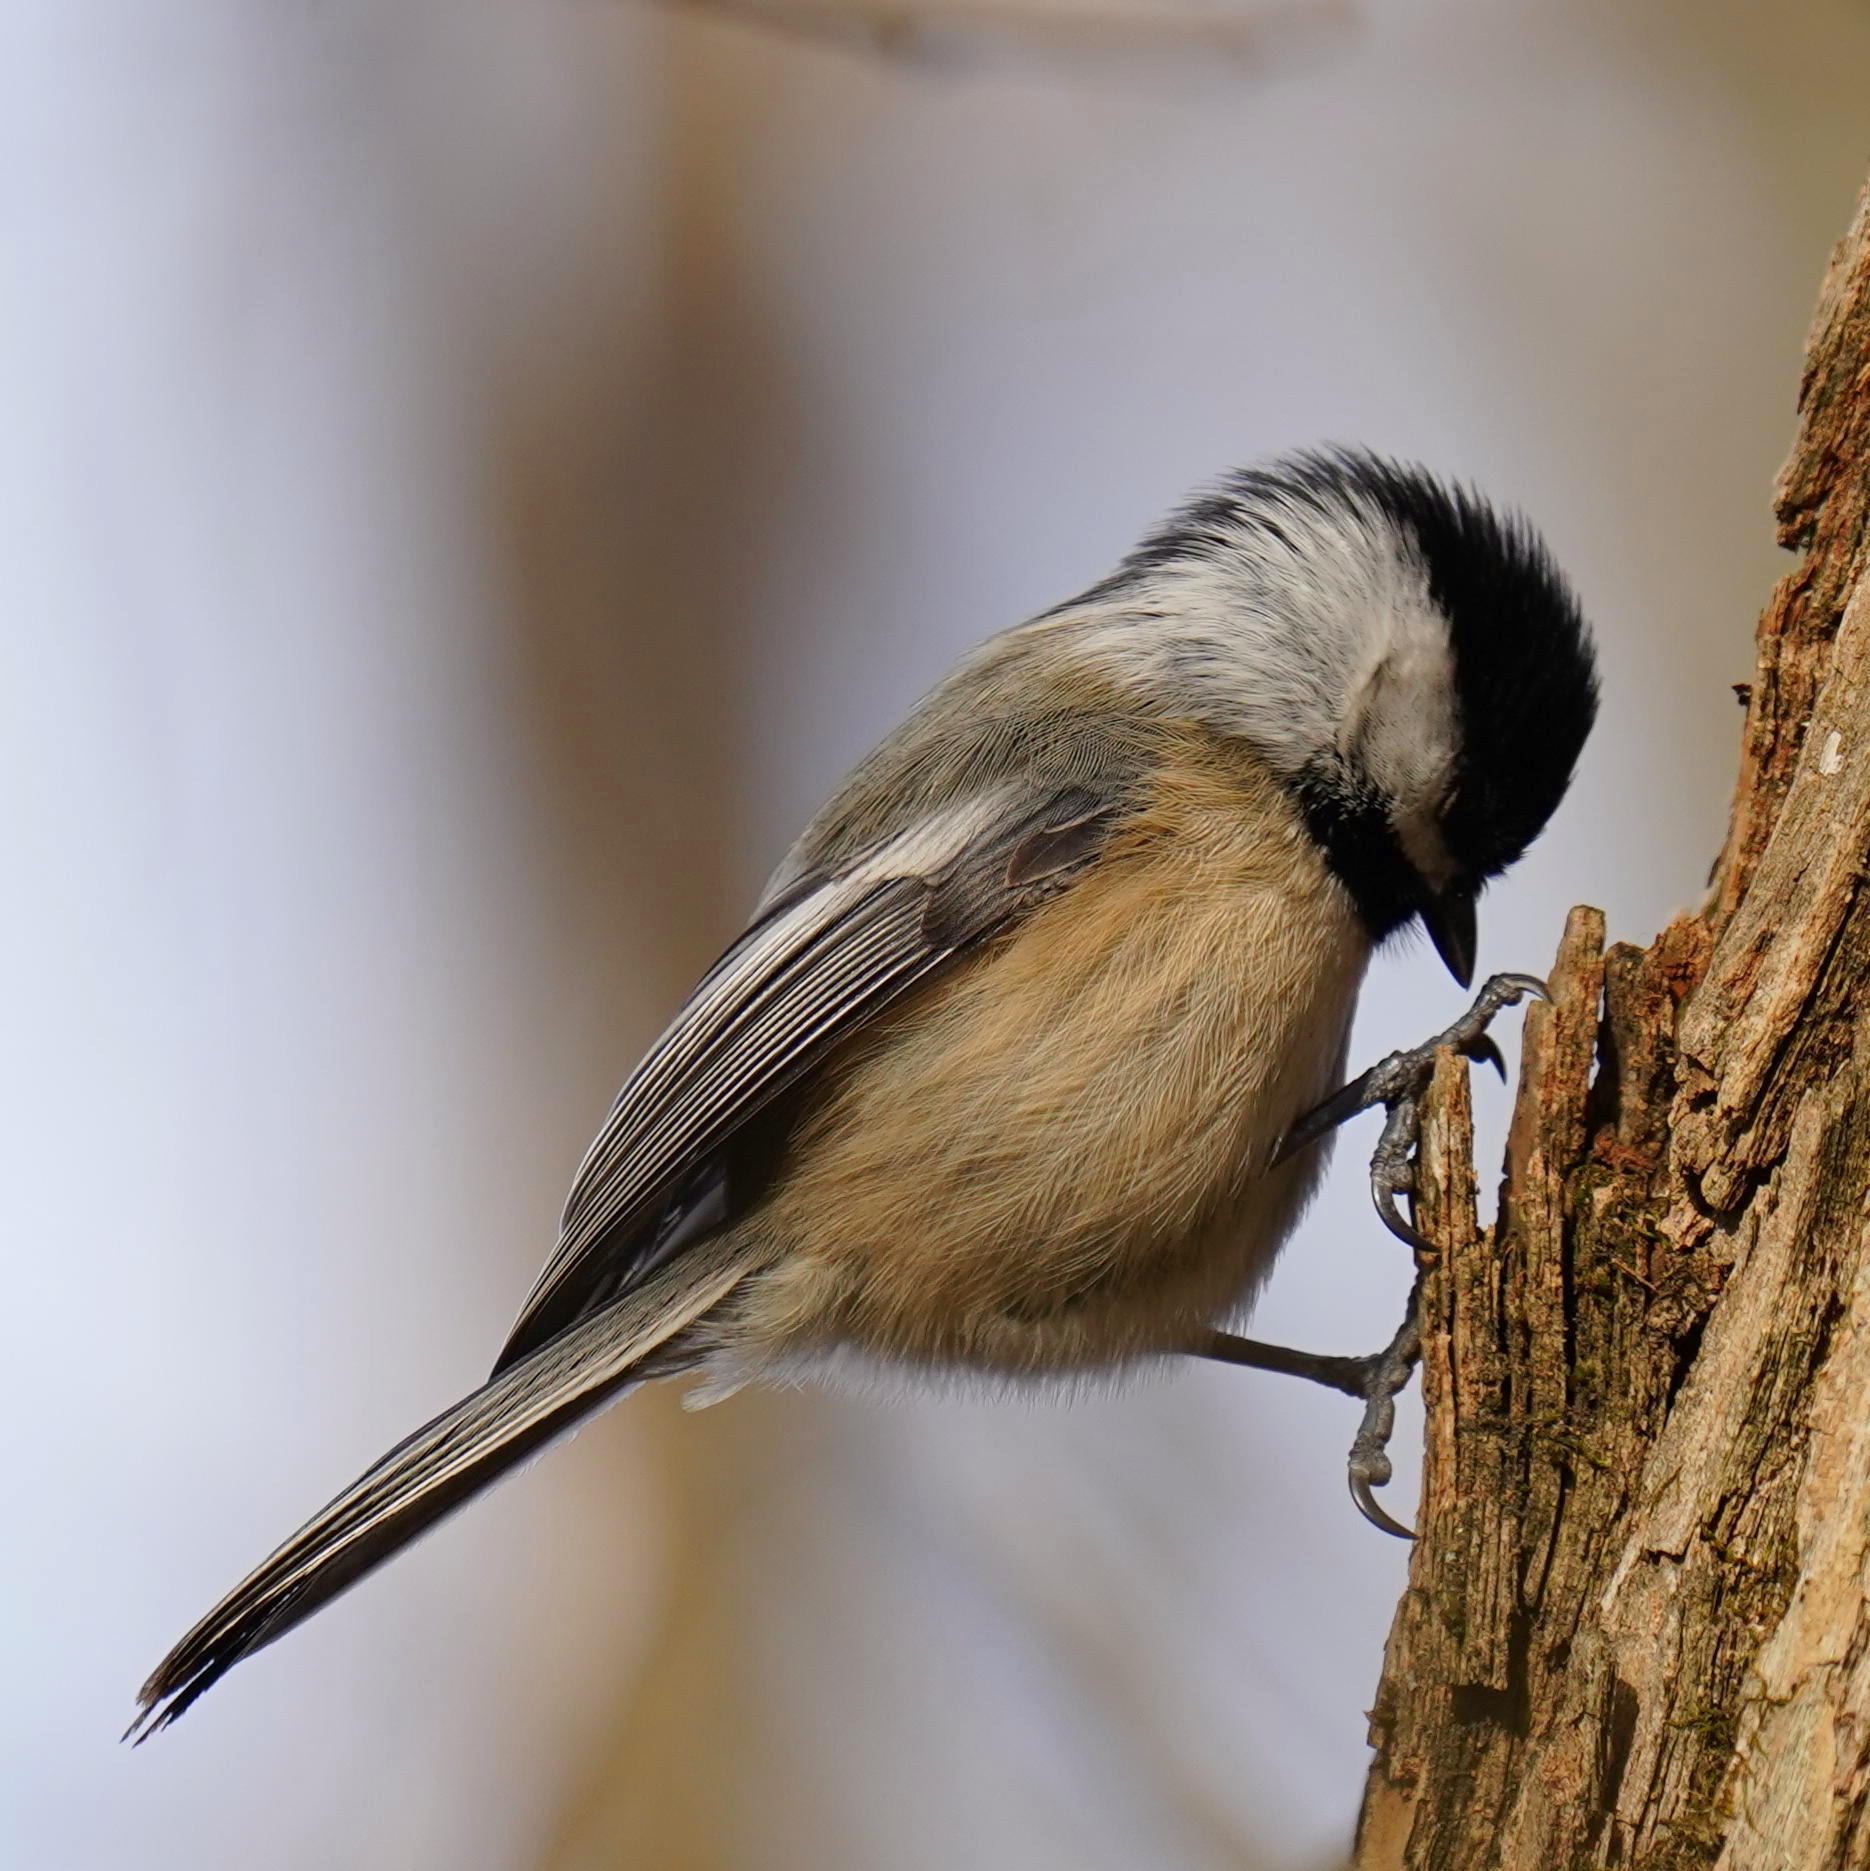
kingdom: Animalia
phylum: Chordata
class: Aves
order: Passeriformes
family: Paridae
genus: Poecile
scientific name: Poecile atricapillus
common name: Black-capped chickadee
